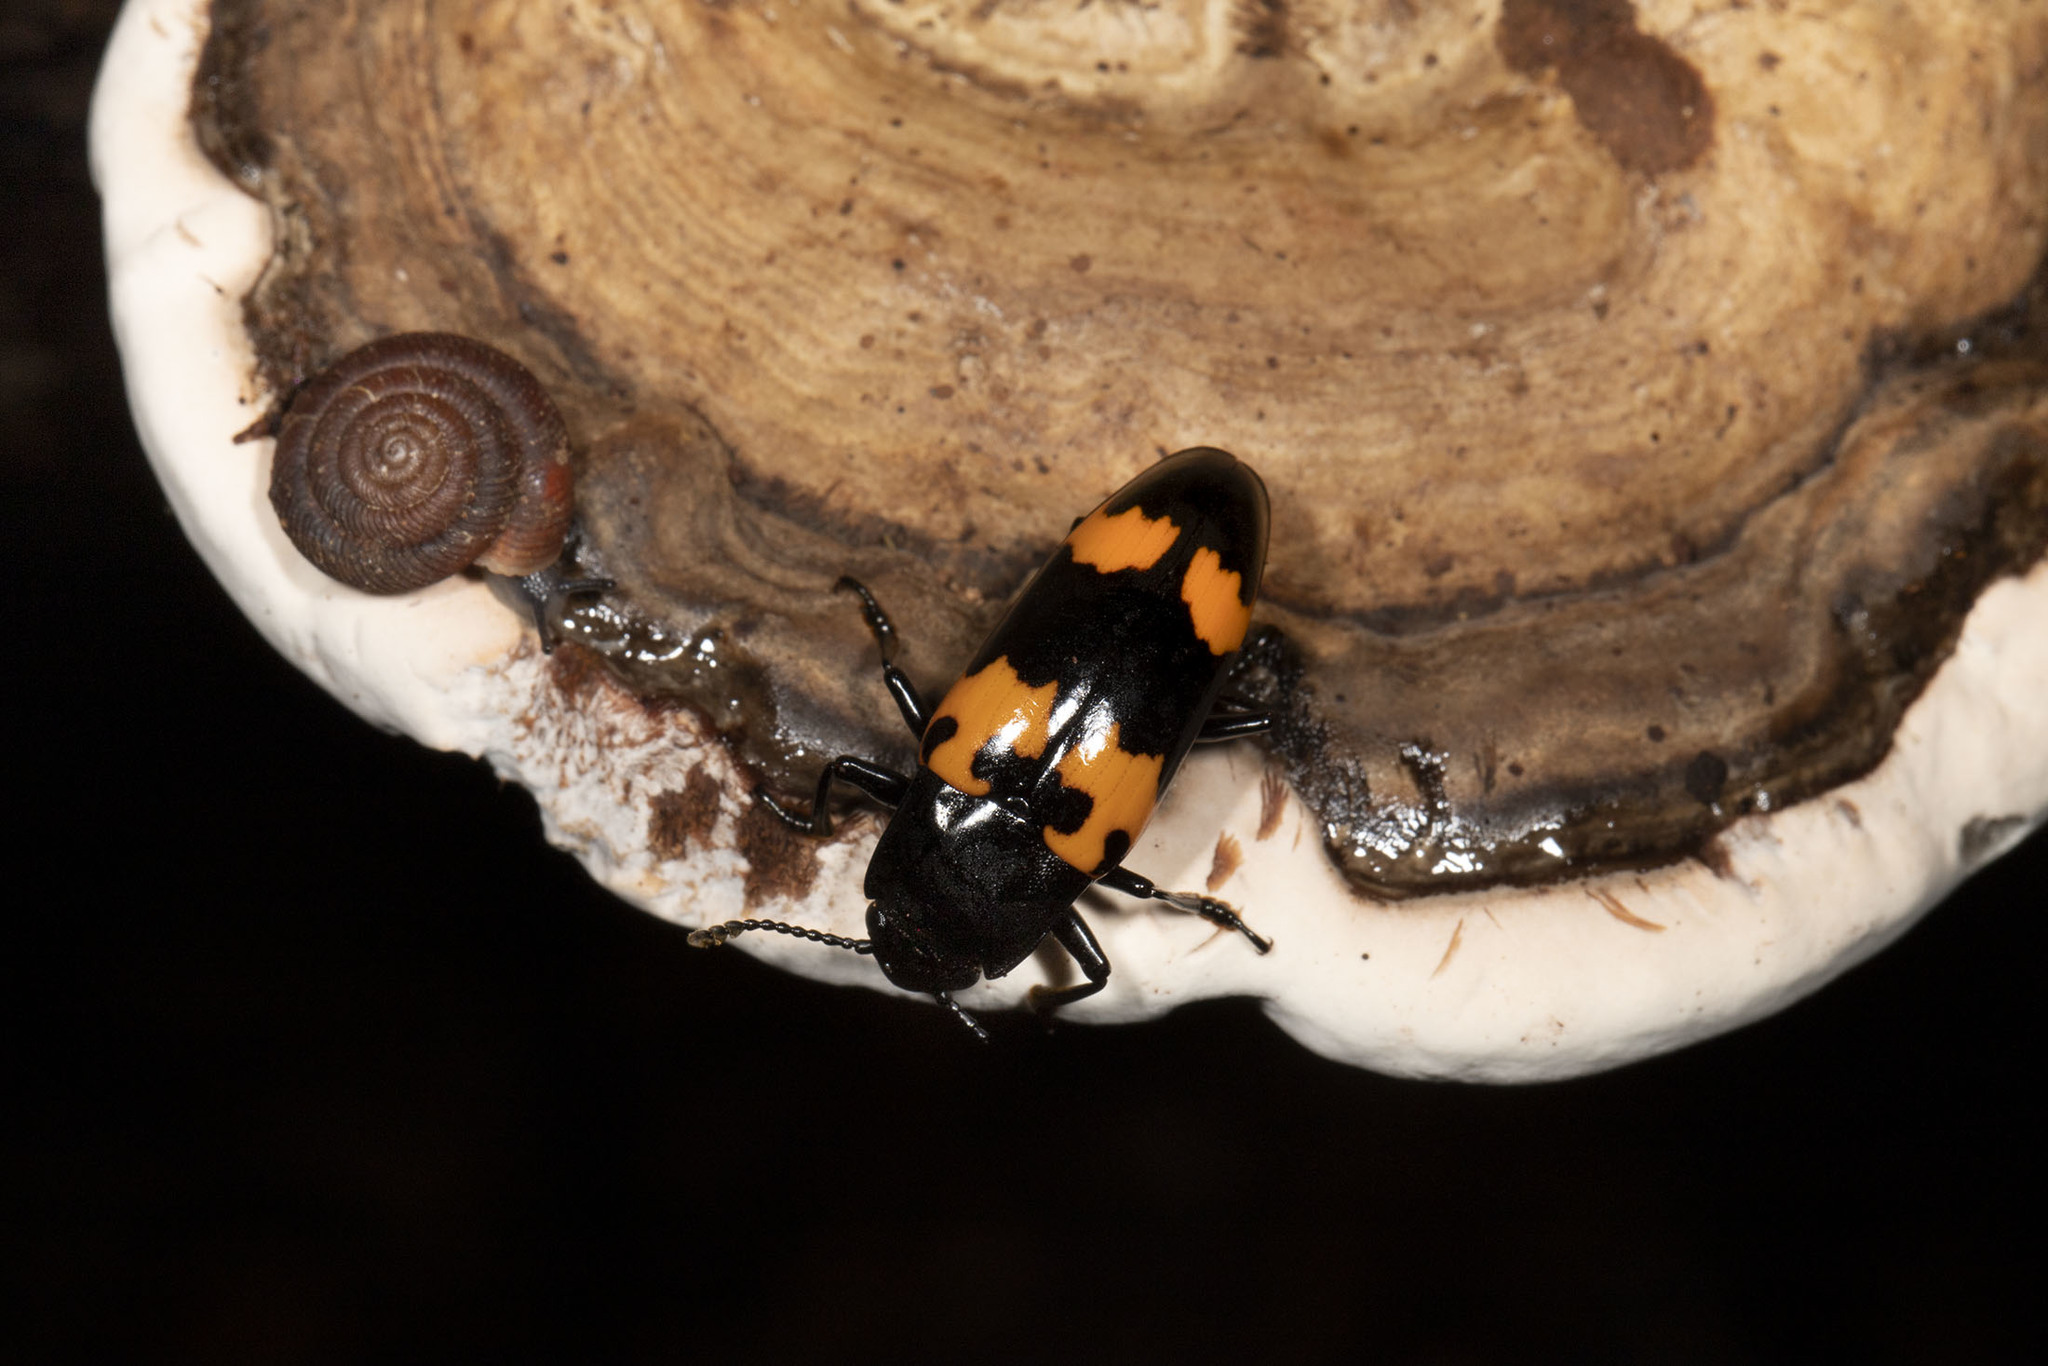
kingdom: Animalia
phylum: Arthropoda
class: Insecta
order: Coleoptera
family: Erotylidae
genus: Megalodacne
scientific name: Megalodacne heros
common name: Pleasing fungus beetle
